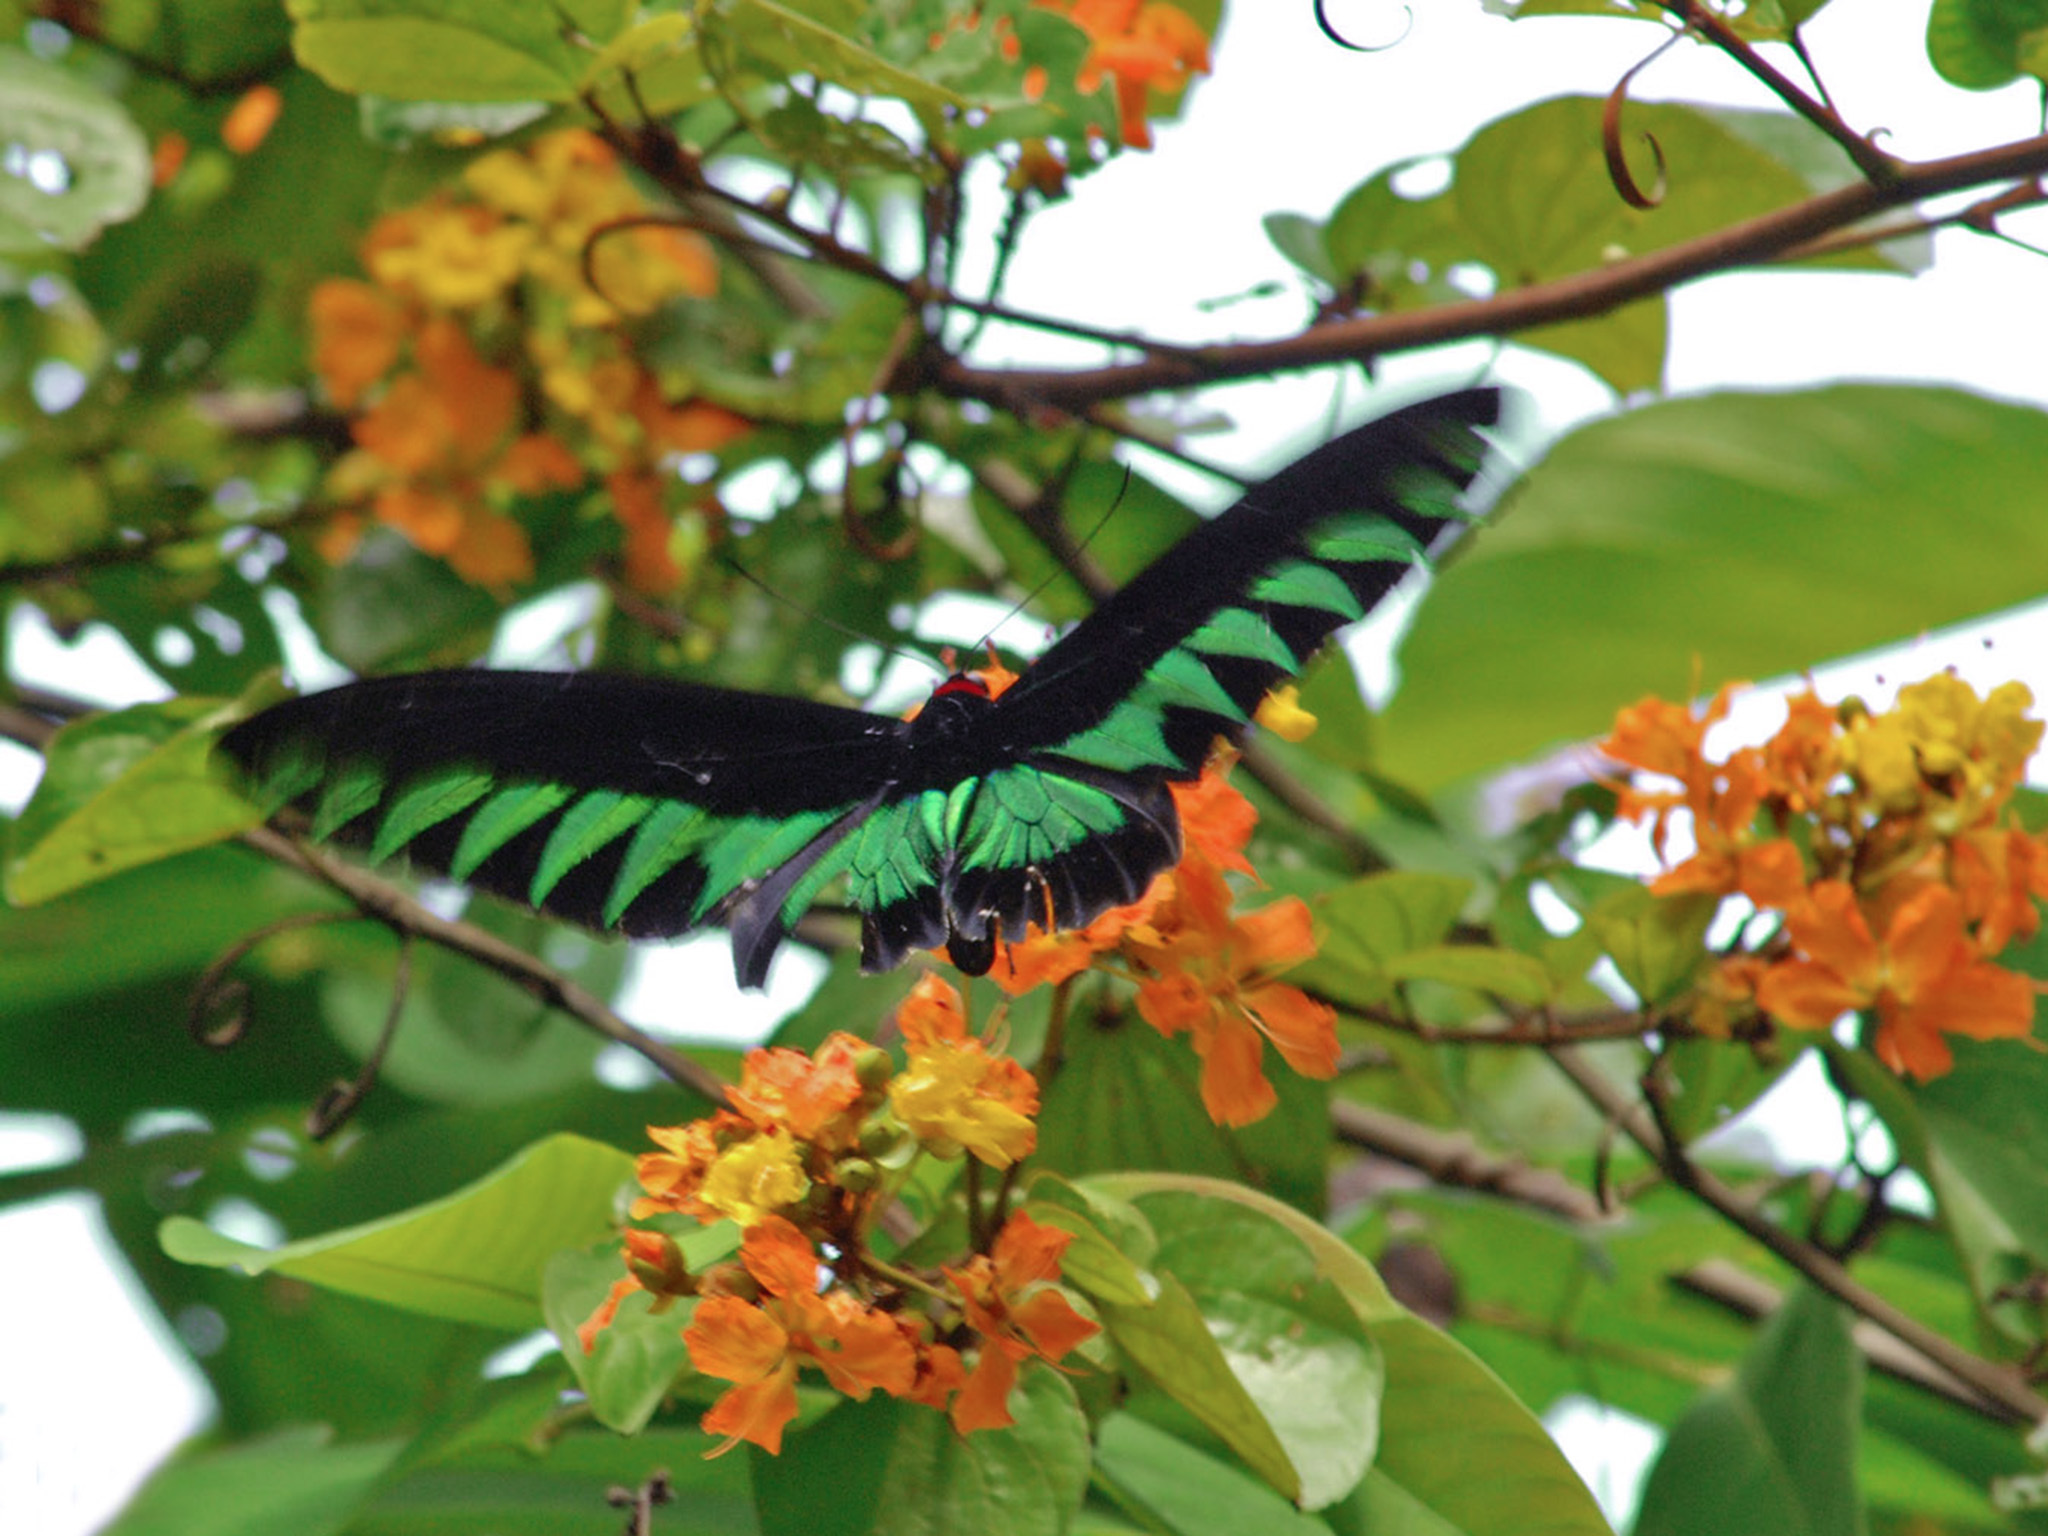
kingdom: Animalia
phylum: Arthropoda
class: Insecta
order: Lepidoptera
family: Papilionidae
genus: Trogonoptera
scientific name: Trogonoptera brookiana
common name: Raja brooke's birdwing
